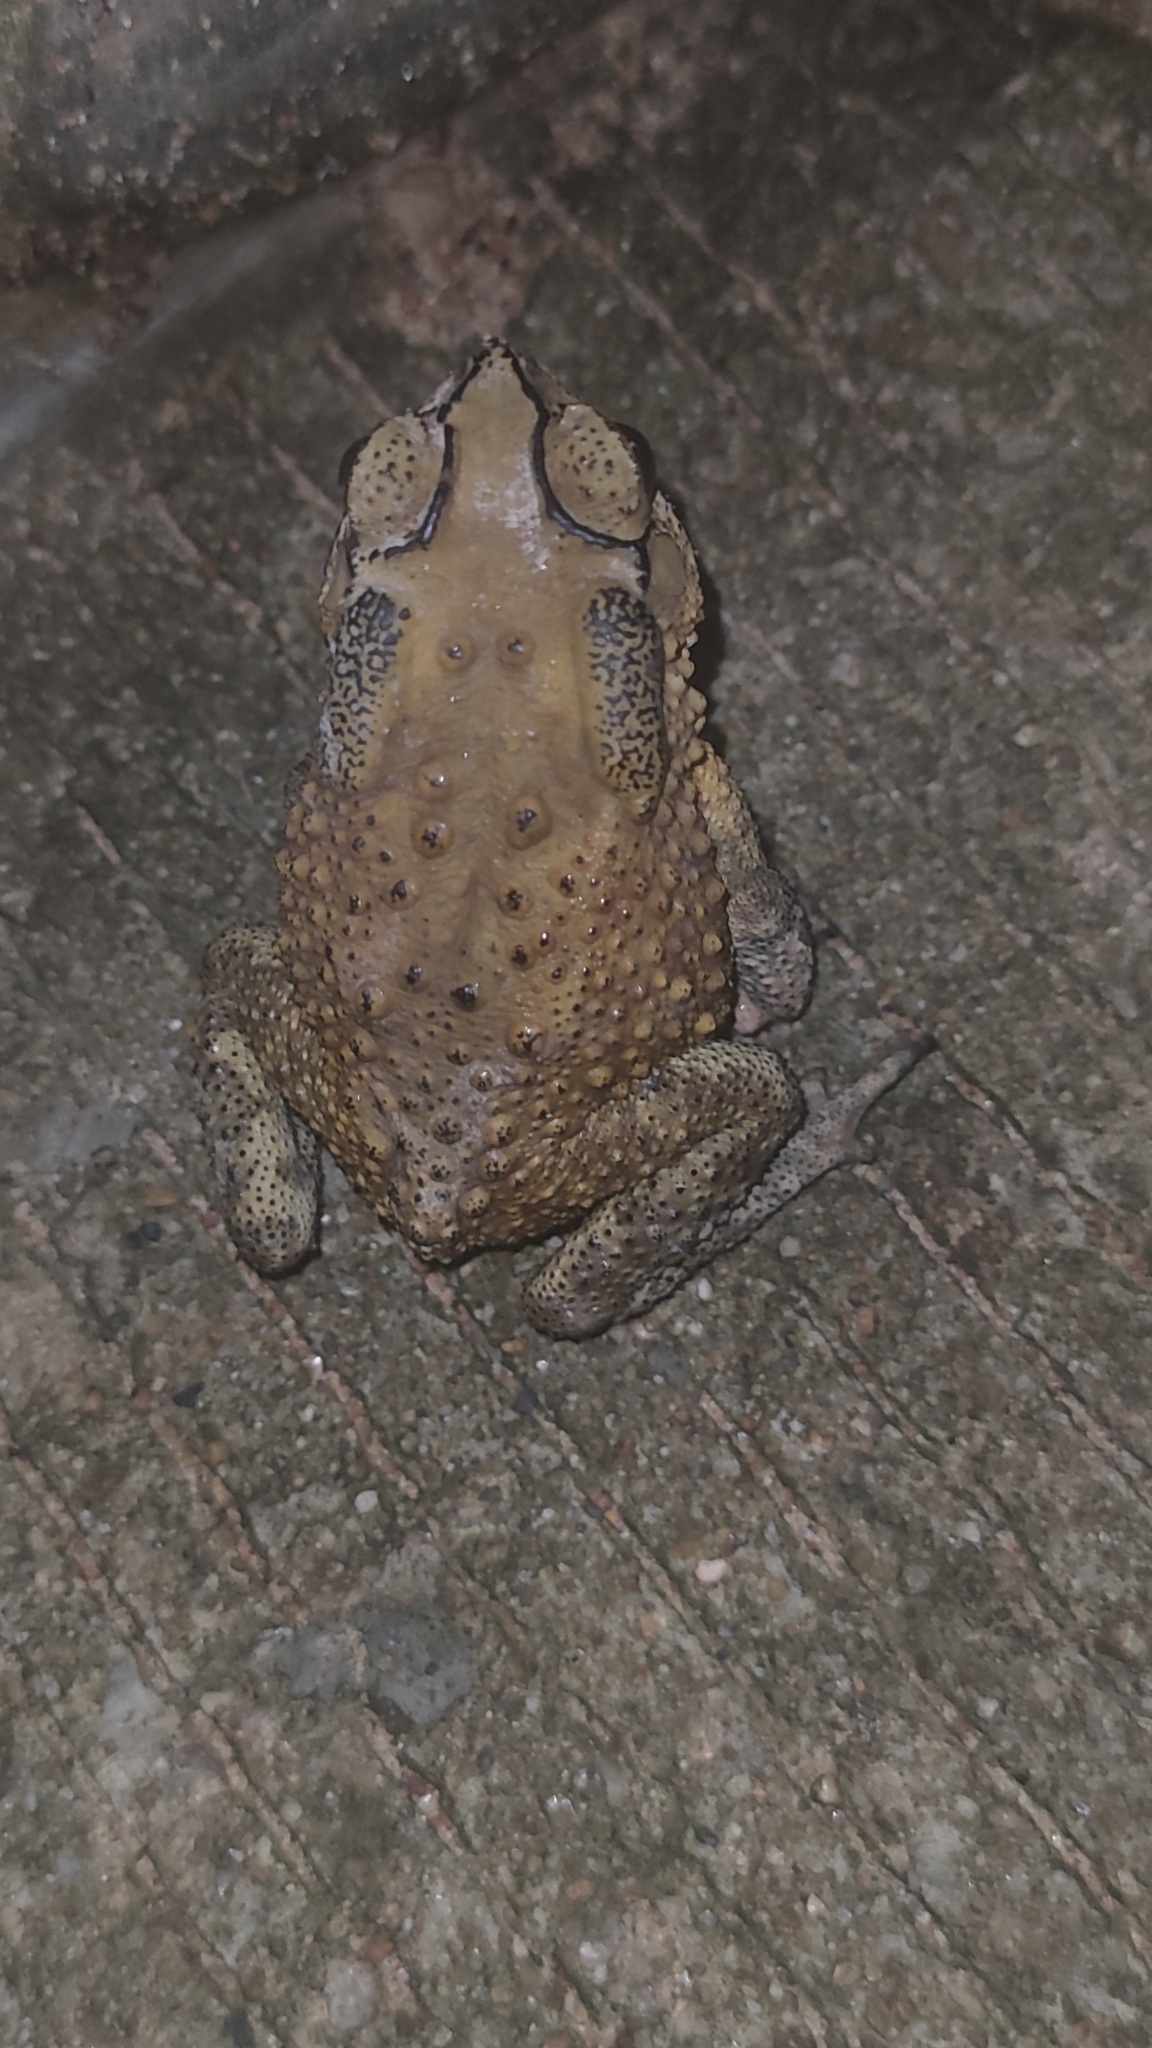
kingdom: Animalia
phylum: Chordata
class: Amphibia
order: Anura
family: Bufonidae
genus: Duttaphrynus
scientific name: Duttaphrynus melanostictus
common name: Common sunda toad
